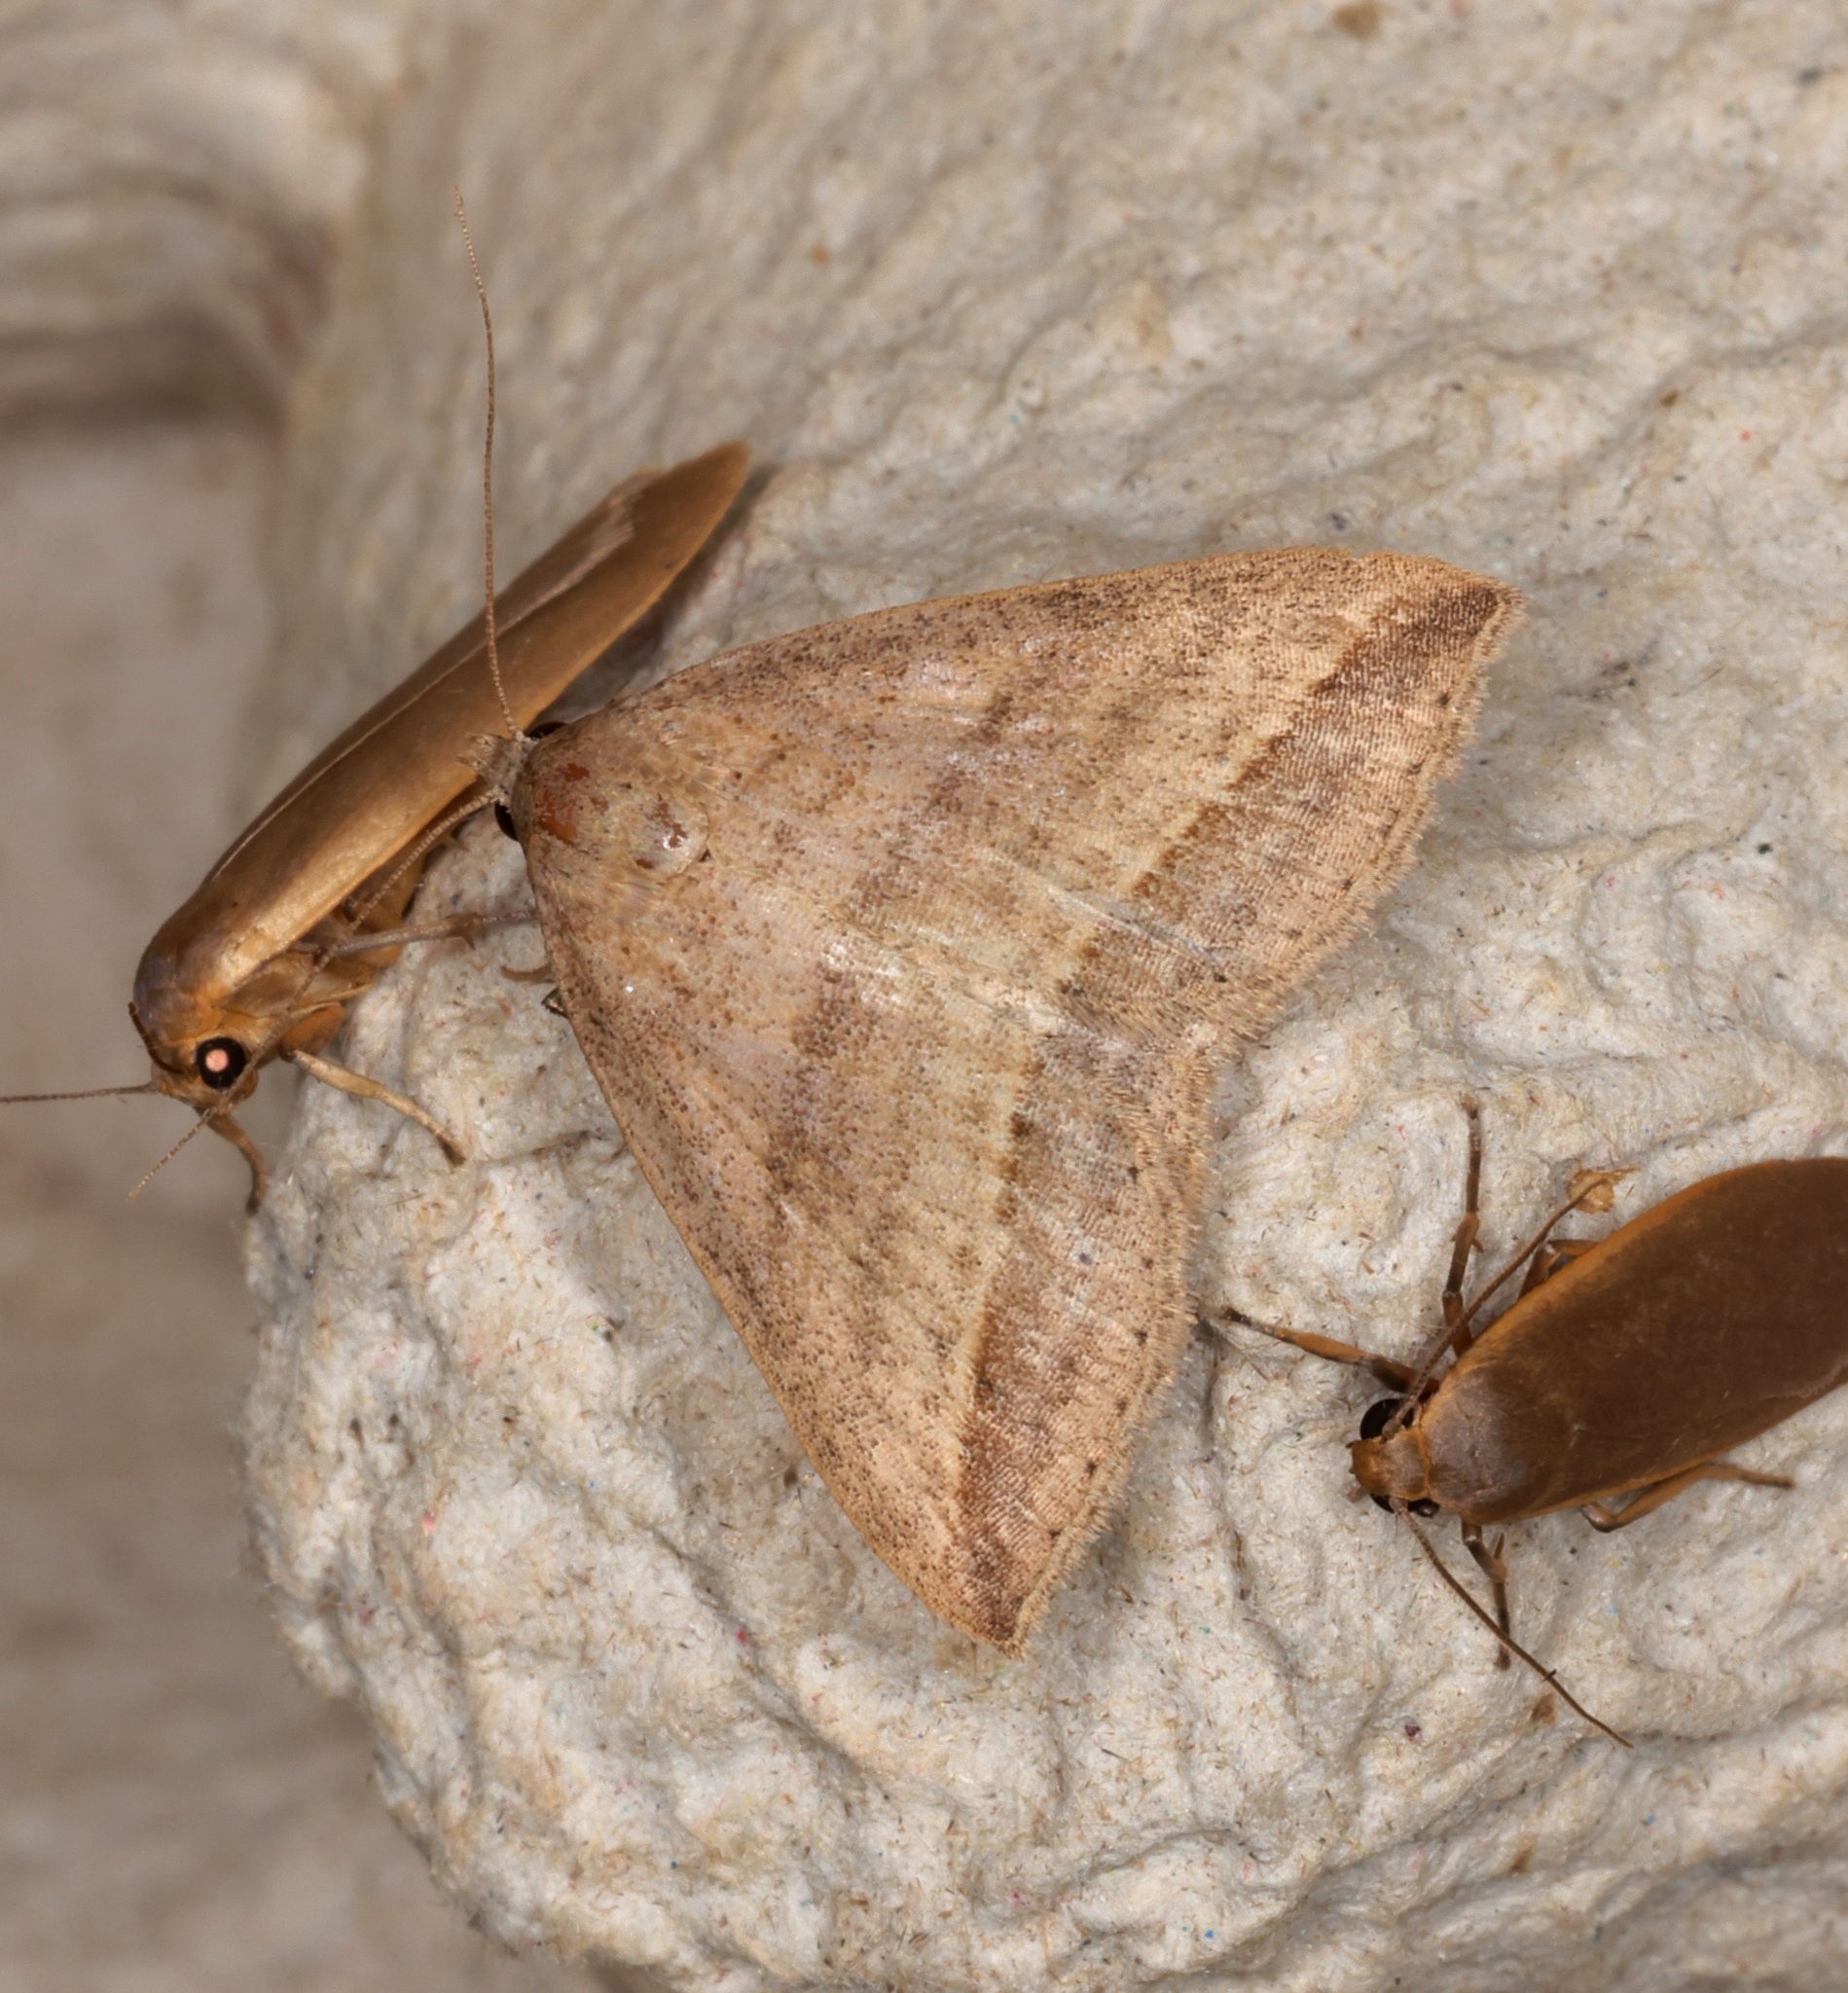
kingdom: Animalia
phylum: Arthropoda
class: Insecta
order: Lepidoptera
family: Erebidae
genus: Loxioda
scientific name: Loxioda similis
